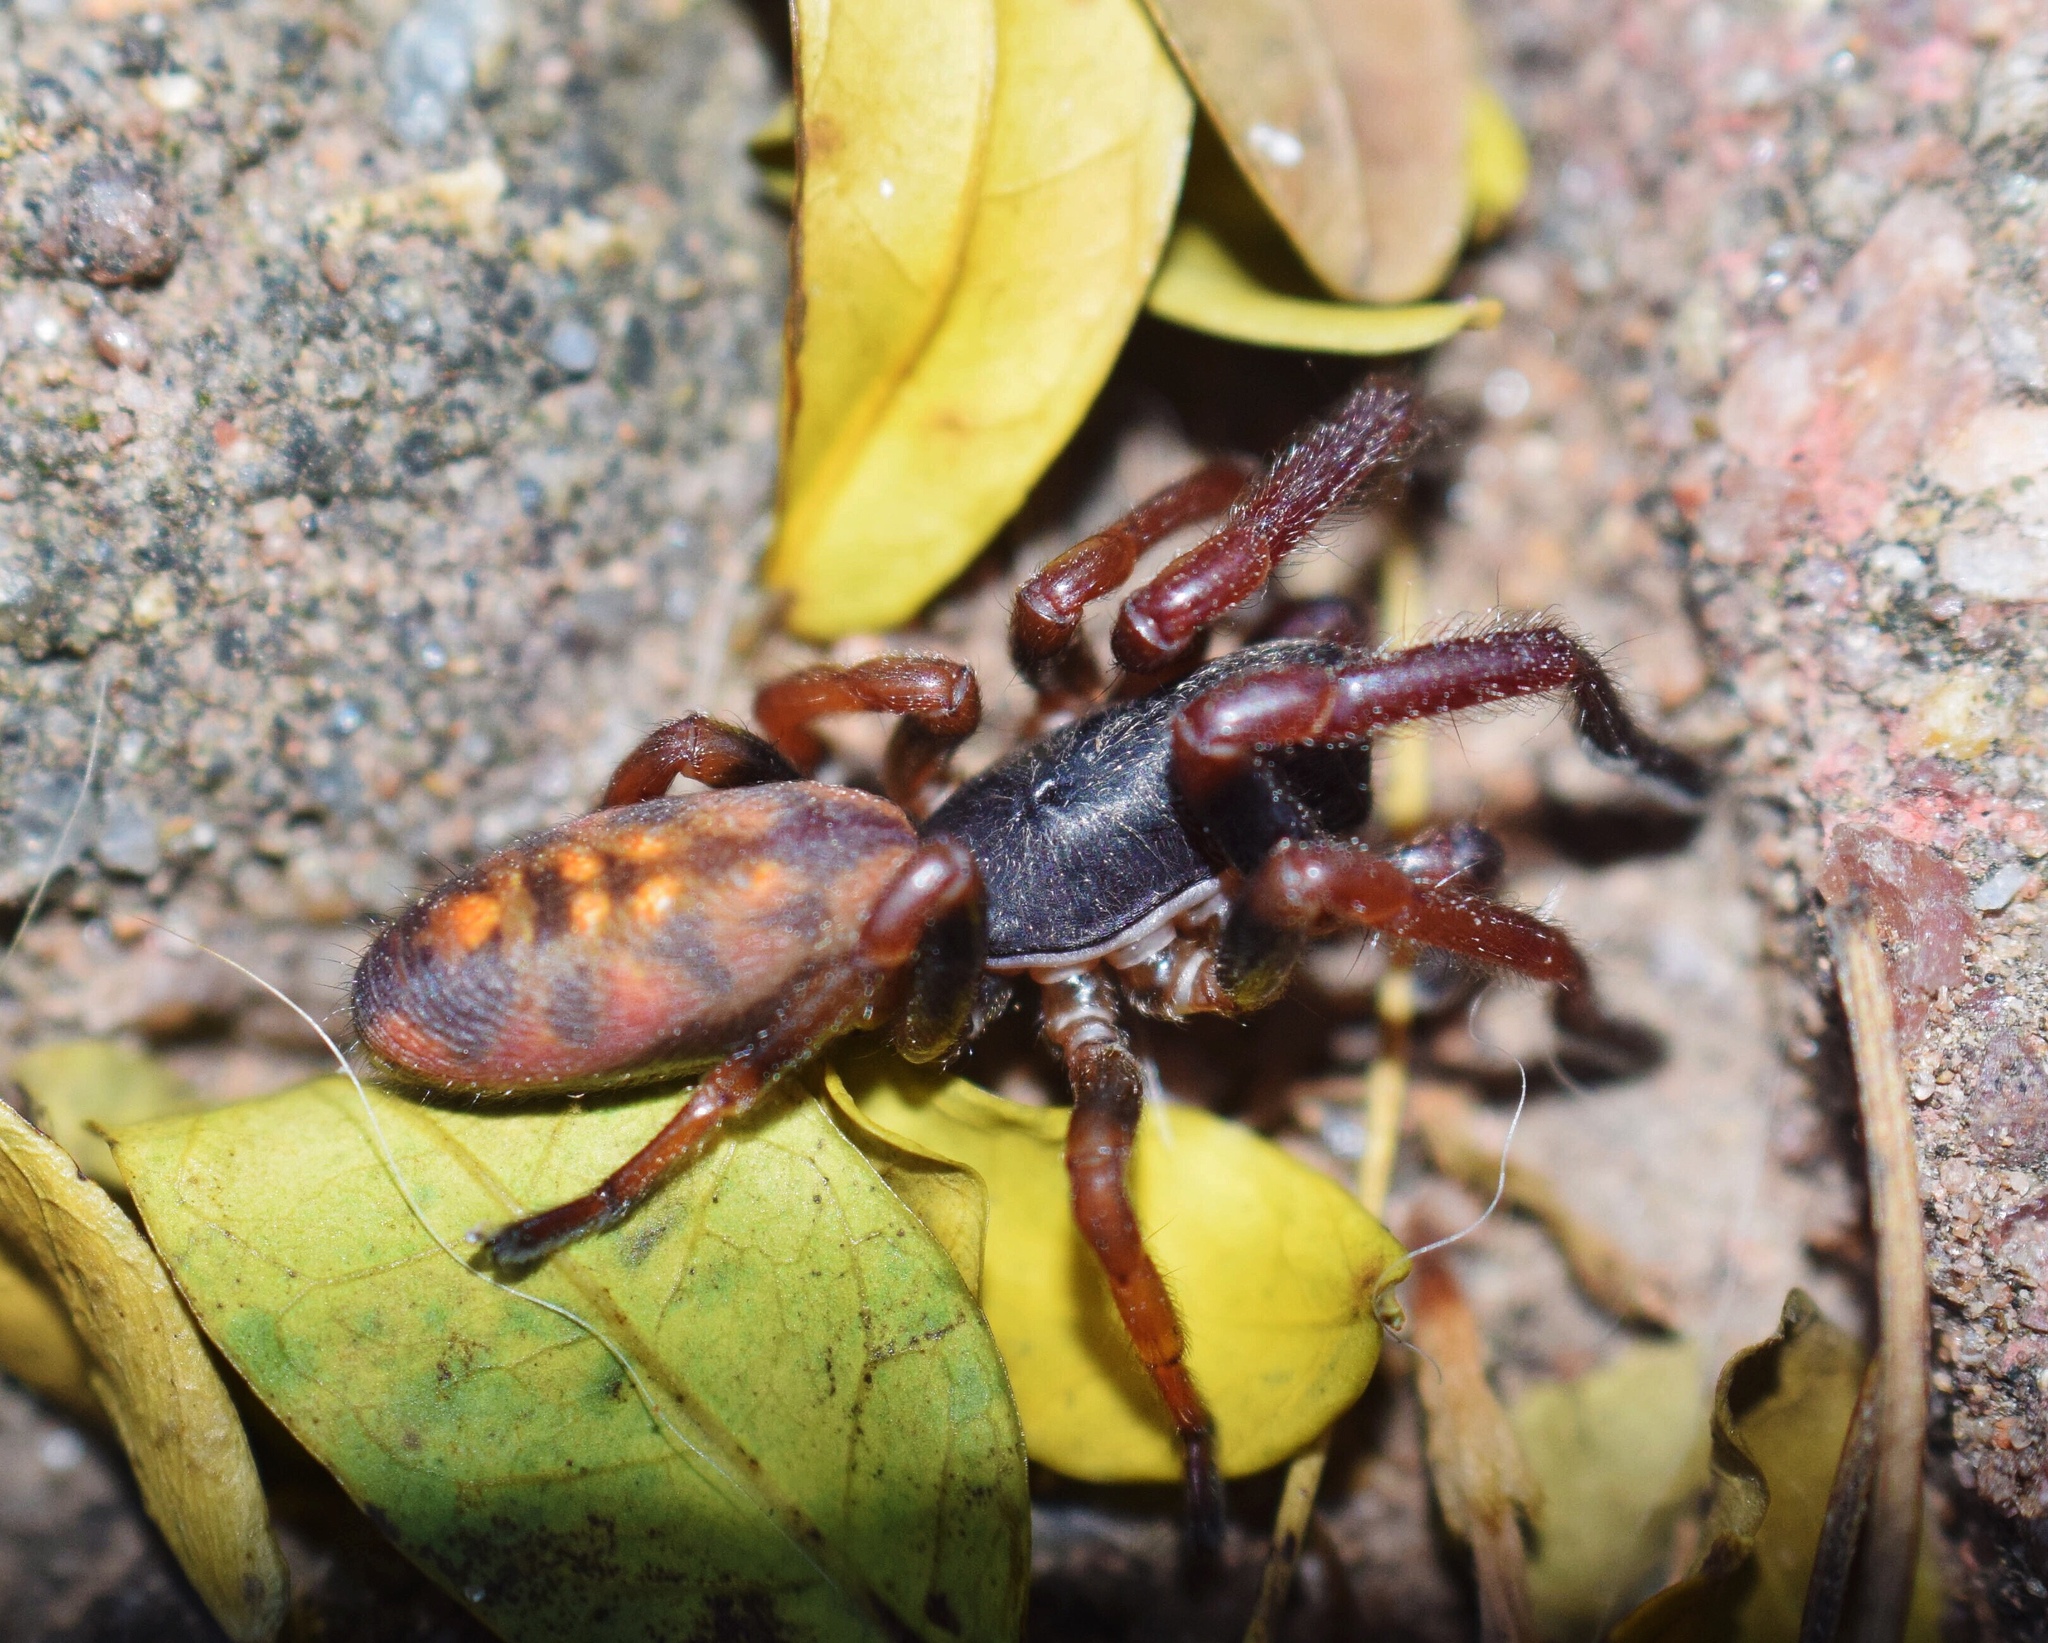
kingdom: Animalia
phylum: Arthropoda
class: Arachnida
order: Araneae
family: Zodariidae
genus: Cicynethus
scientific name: Cicynethus decoratus
